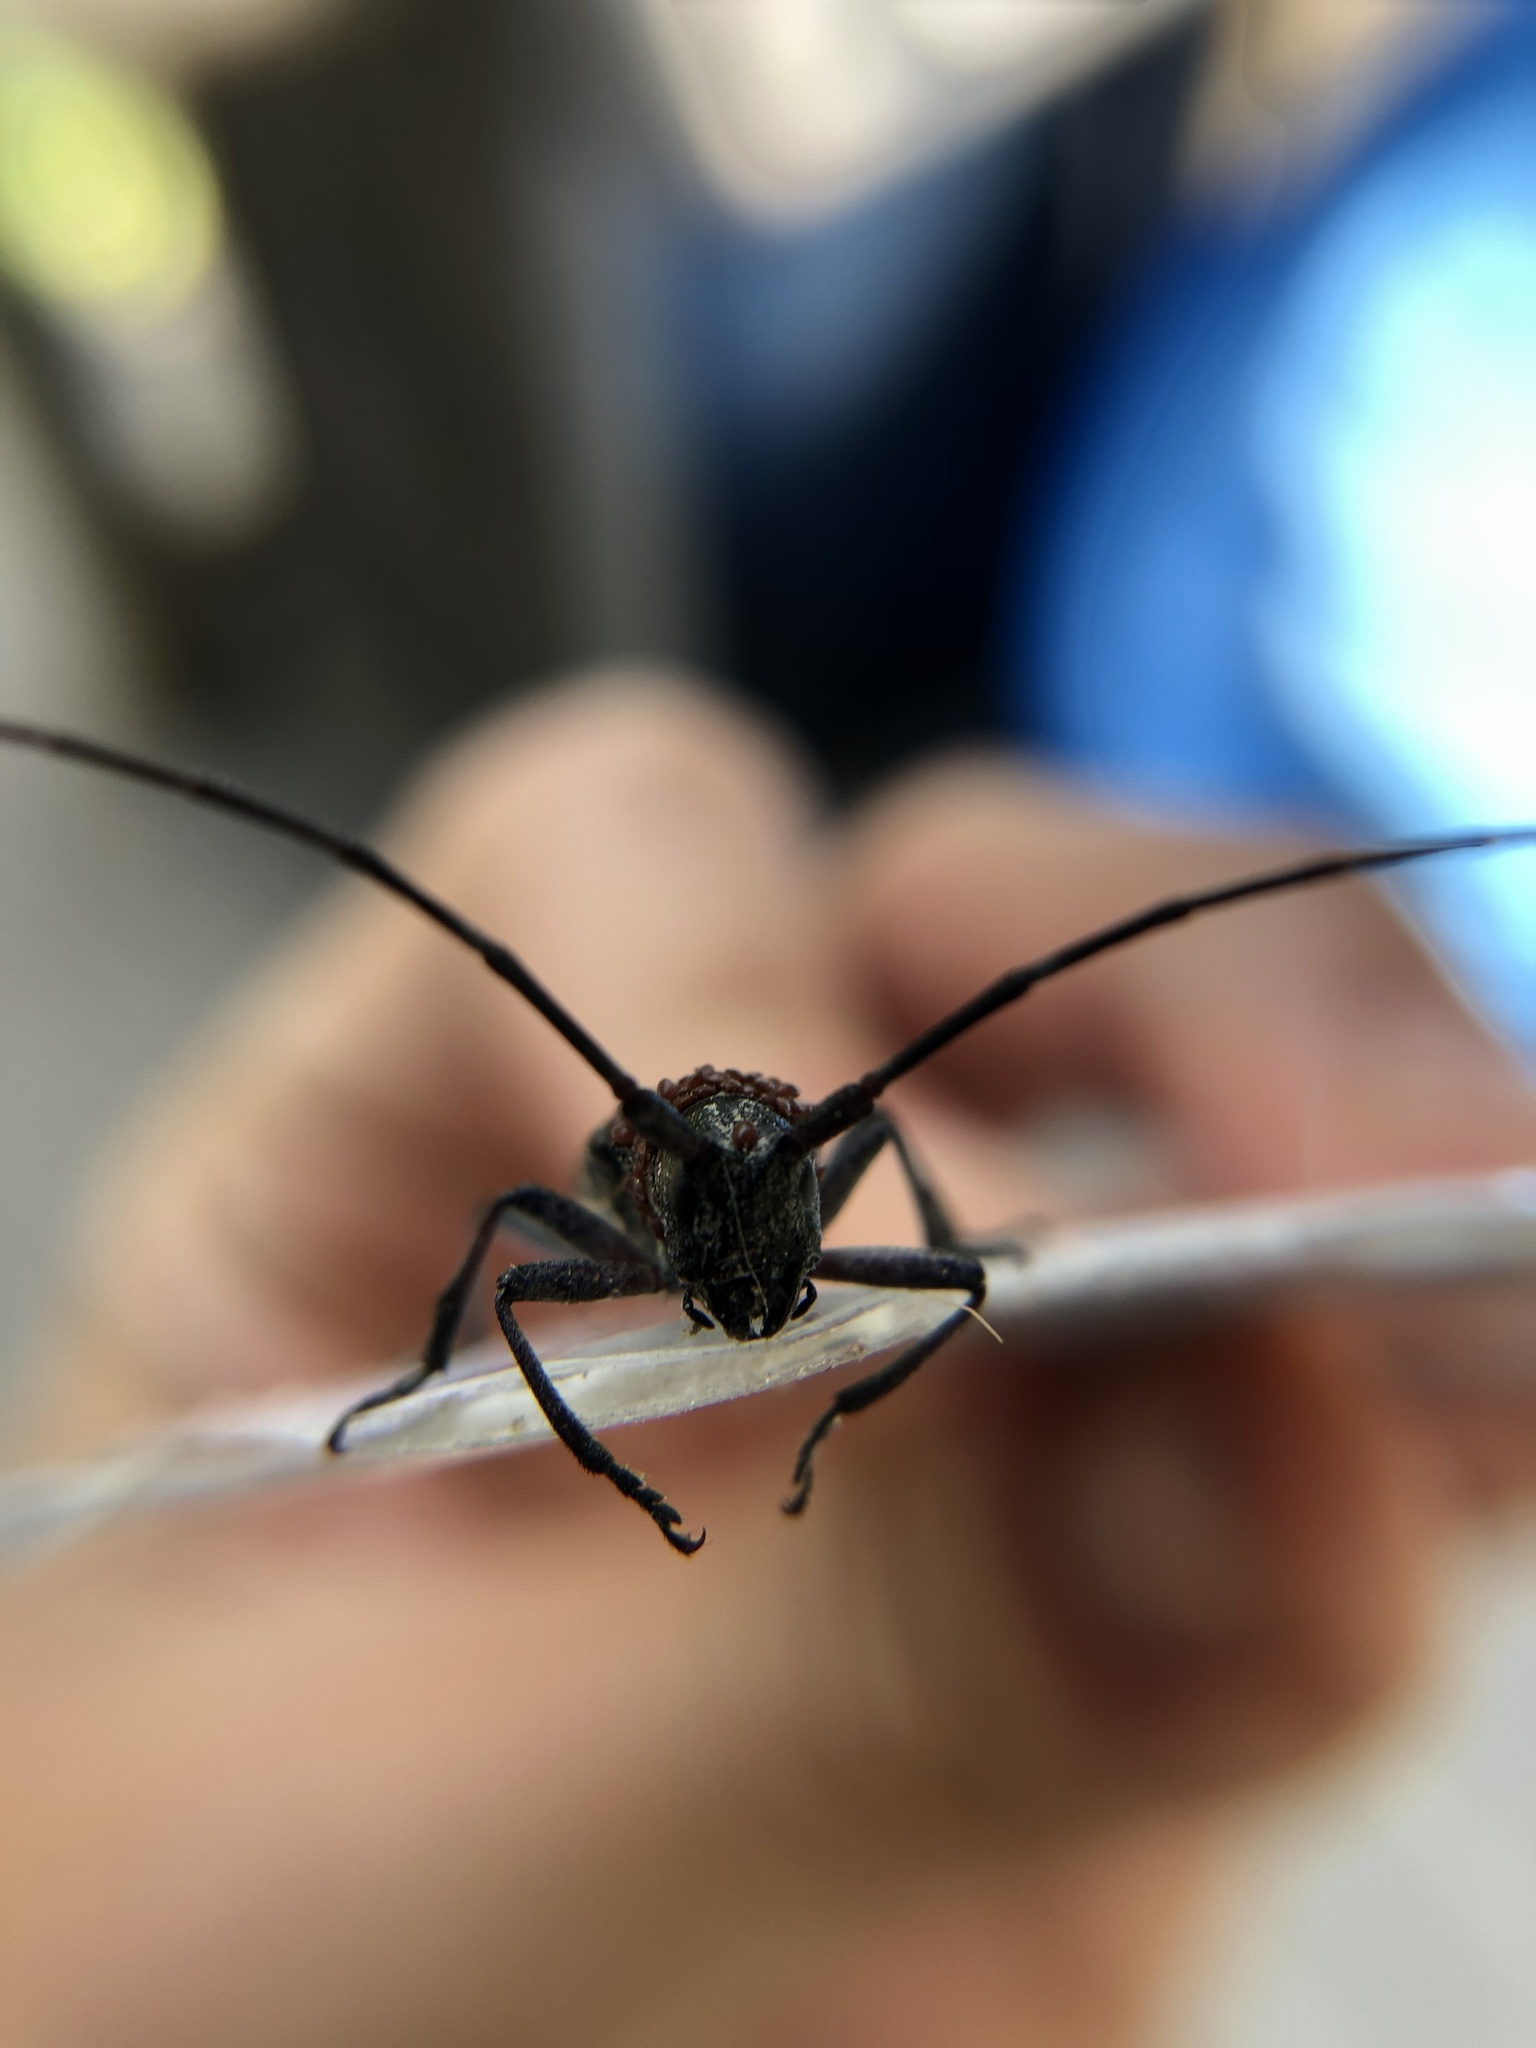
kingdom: Animalia
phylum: Arthropoda
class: Insecta
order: Coleoptera
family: Cerambycidae
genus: Monochamus
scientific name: Monochamus scutellatus
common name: White-spotted sawyer beetle
